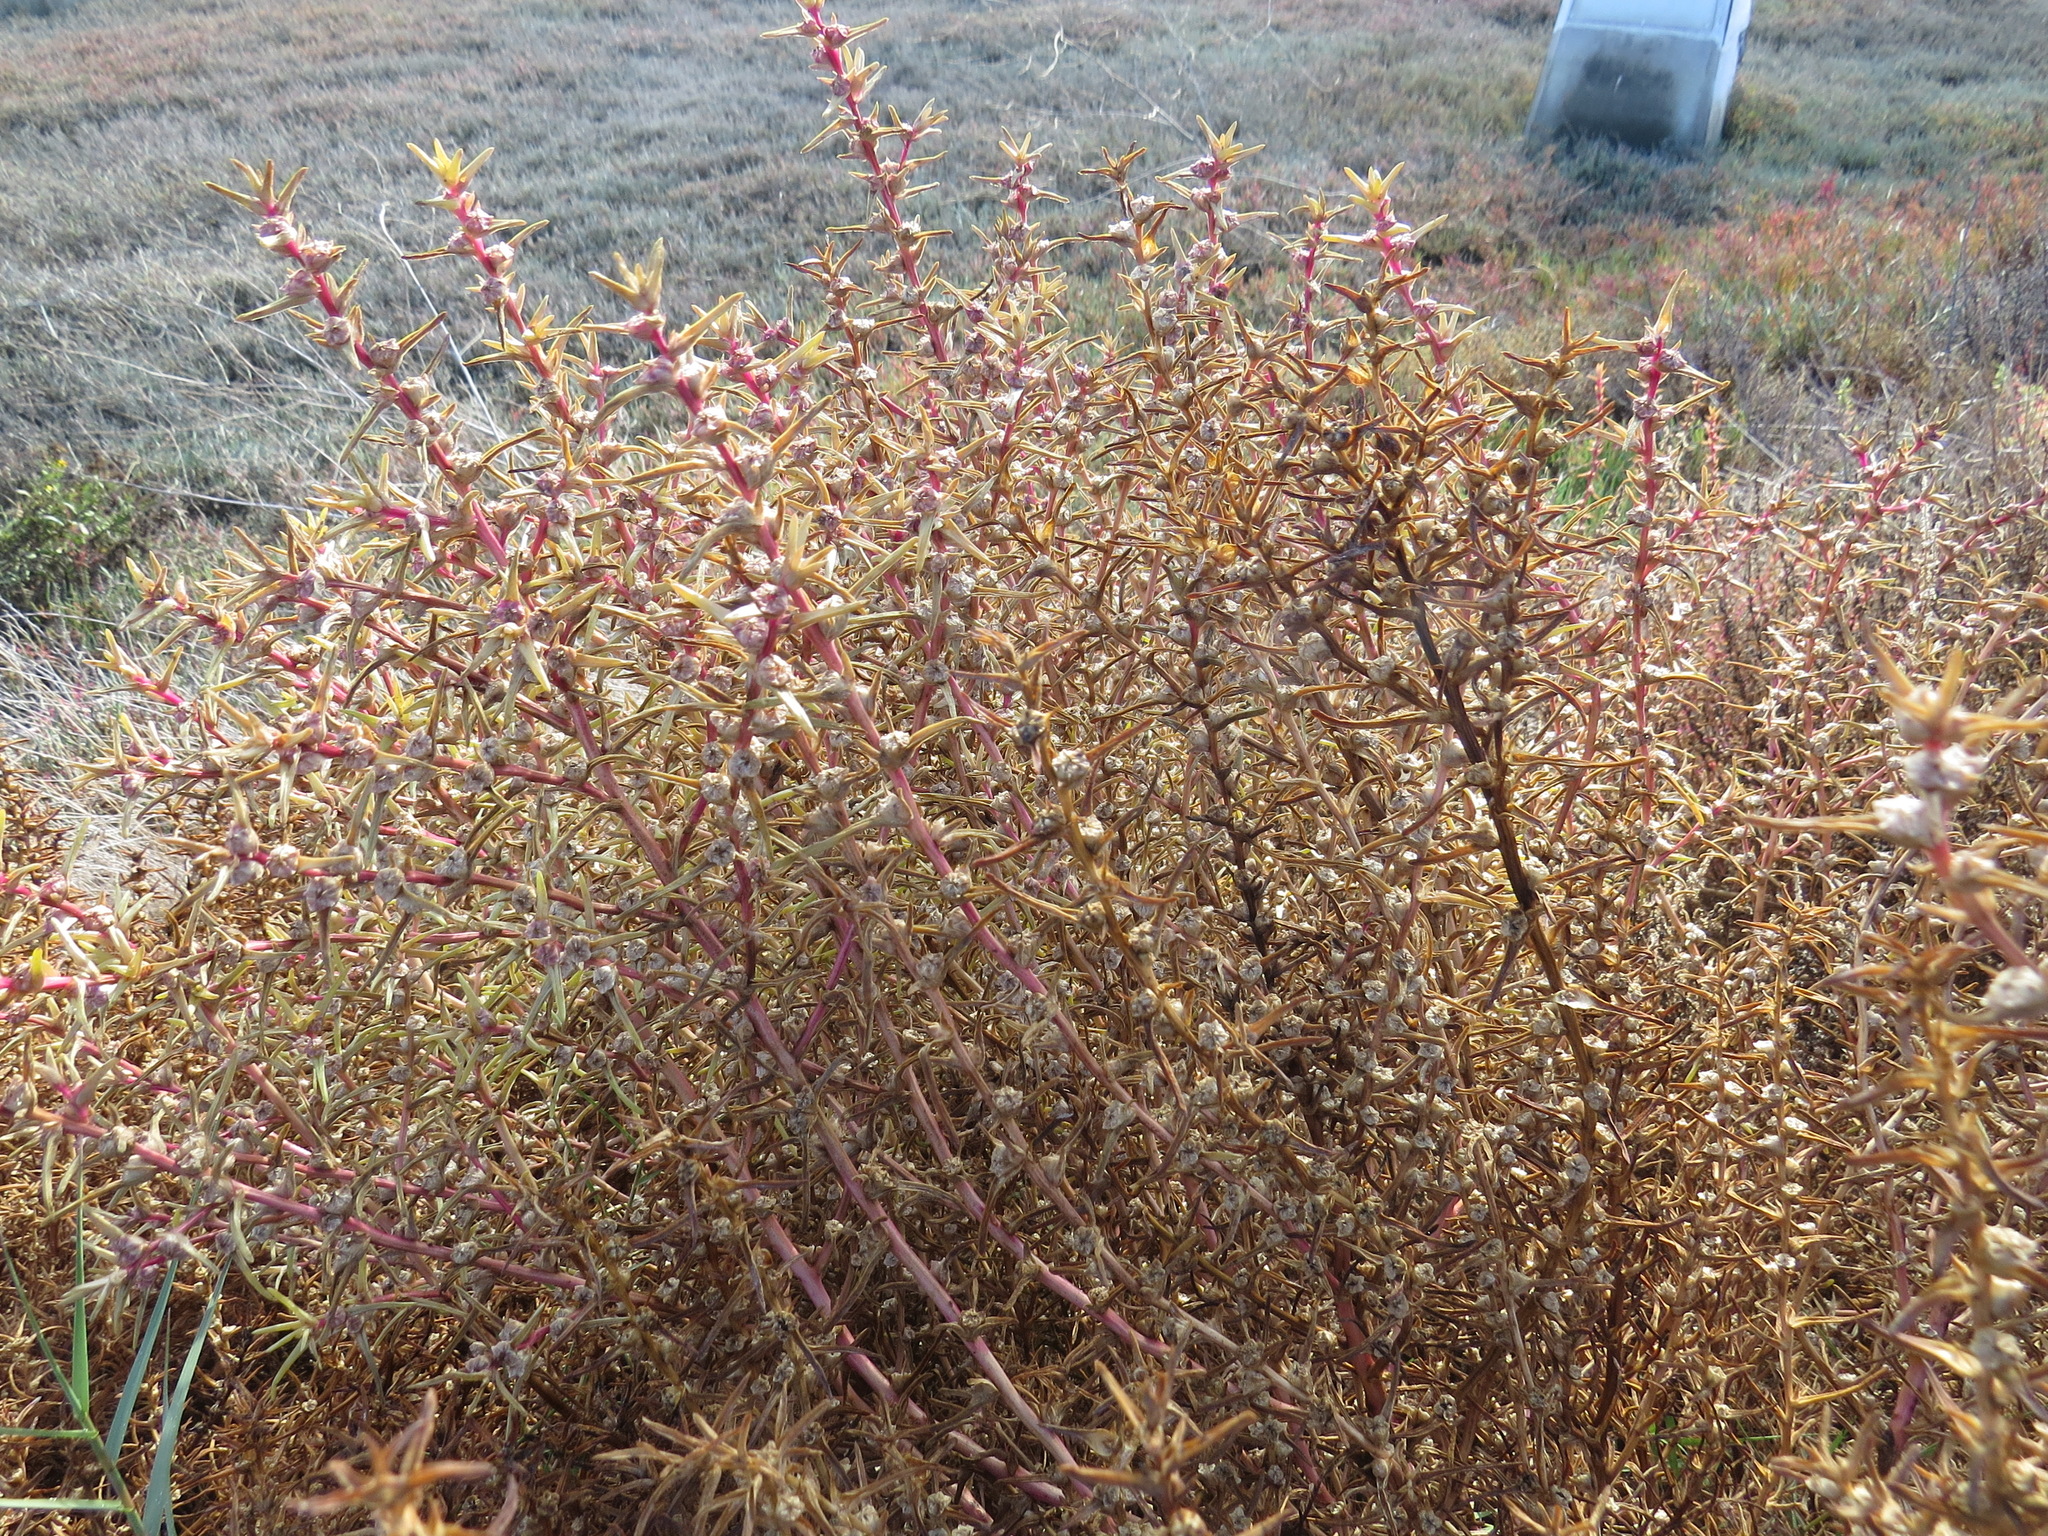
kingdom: Plantae
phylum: Tracheophyta
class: Magnoliopsida
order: Caryophyllales
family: Amaranthaceae
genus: Salsola
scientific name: Salsola soda
